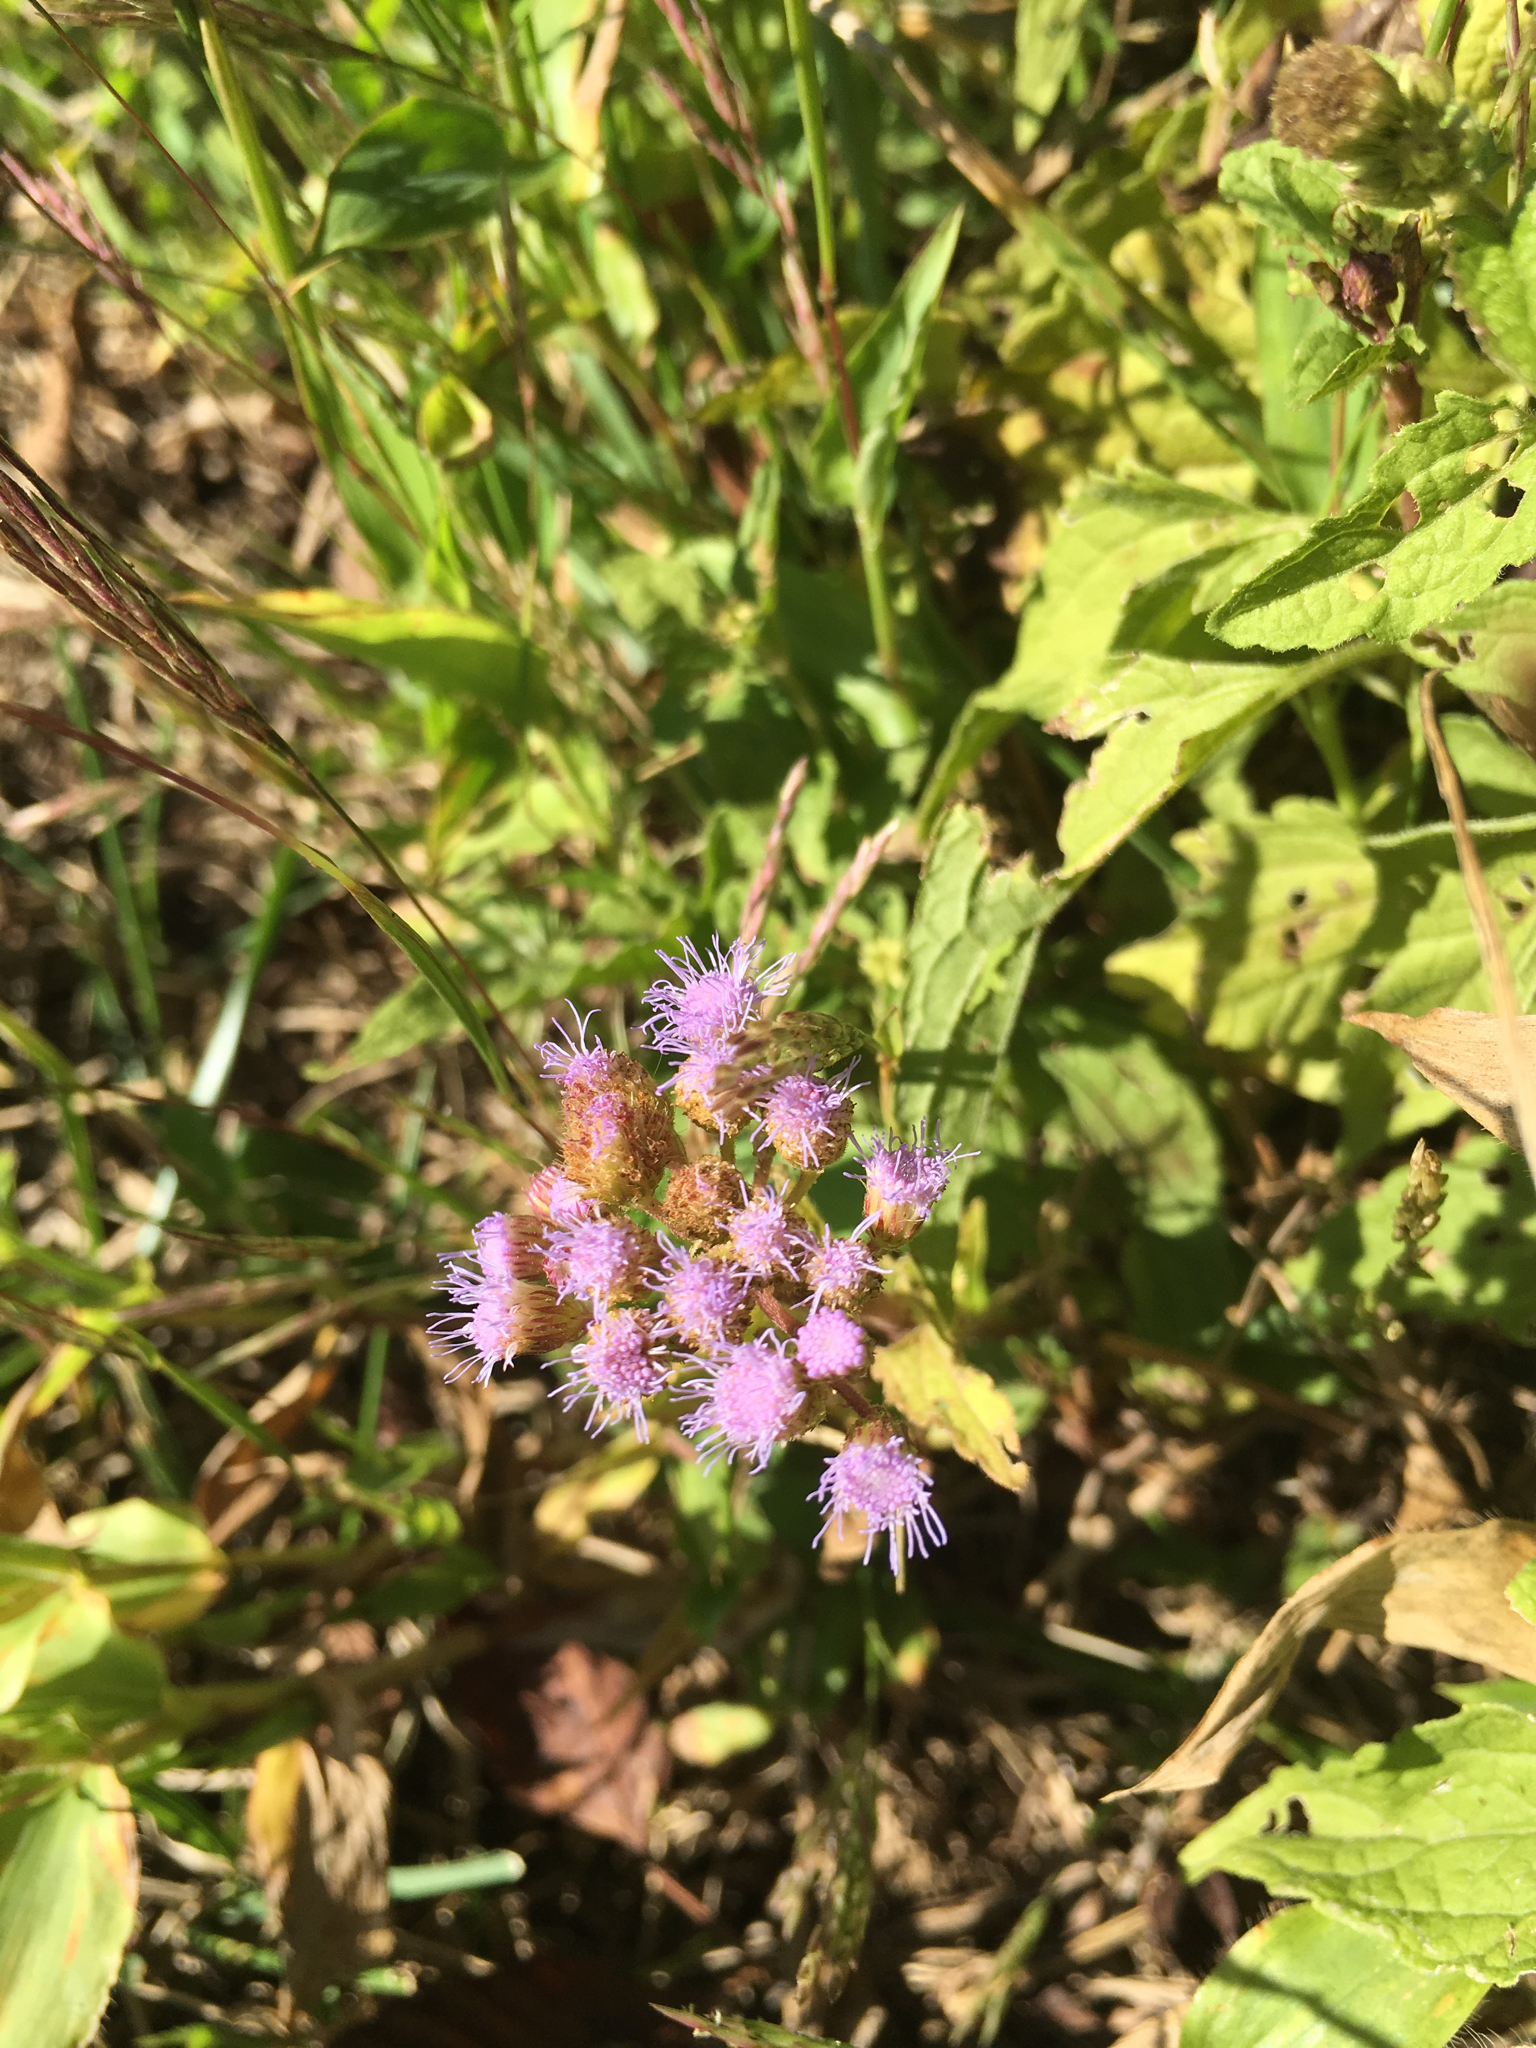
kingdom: Plantae
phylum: Tracheophyta
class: Magnoliopsida
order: Asterales
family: Asteraceae
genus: Conoclinium
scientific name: Conoclinium coelestinum
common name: Blue mistflower
